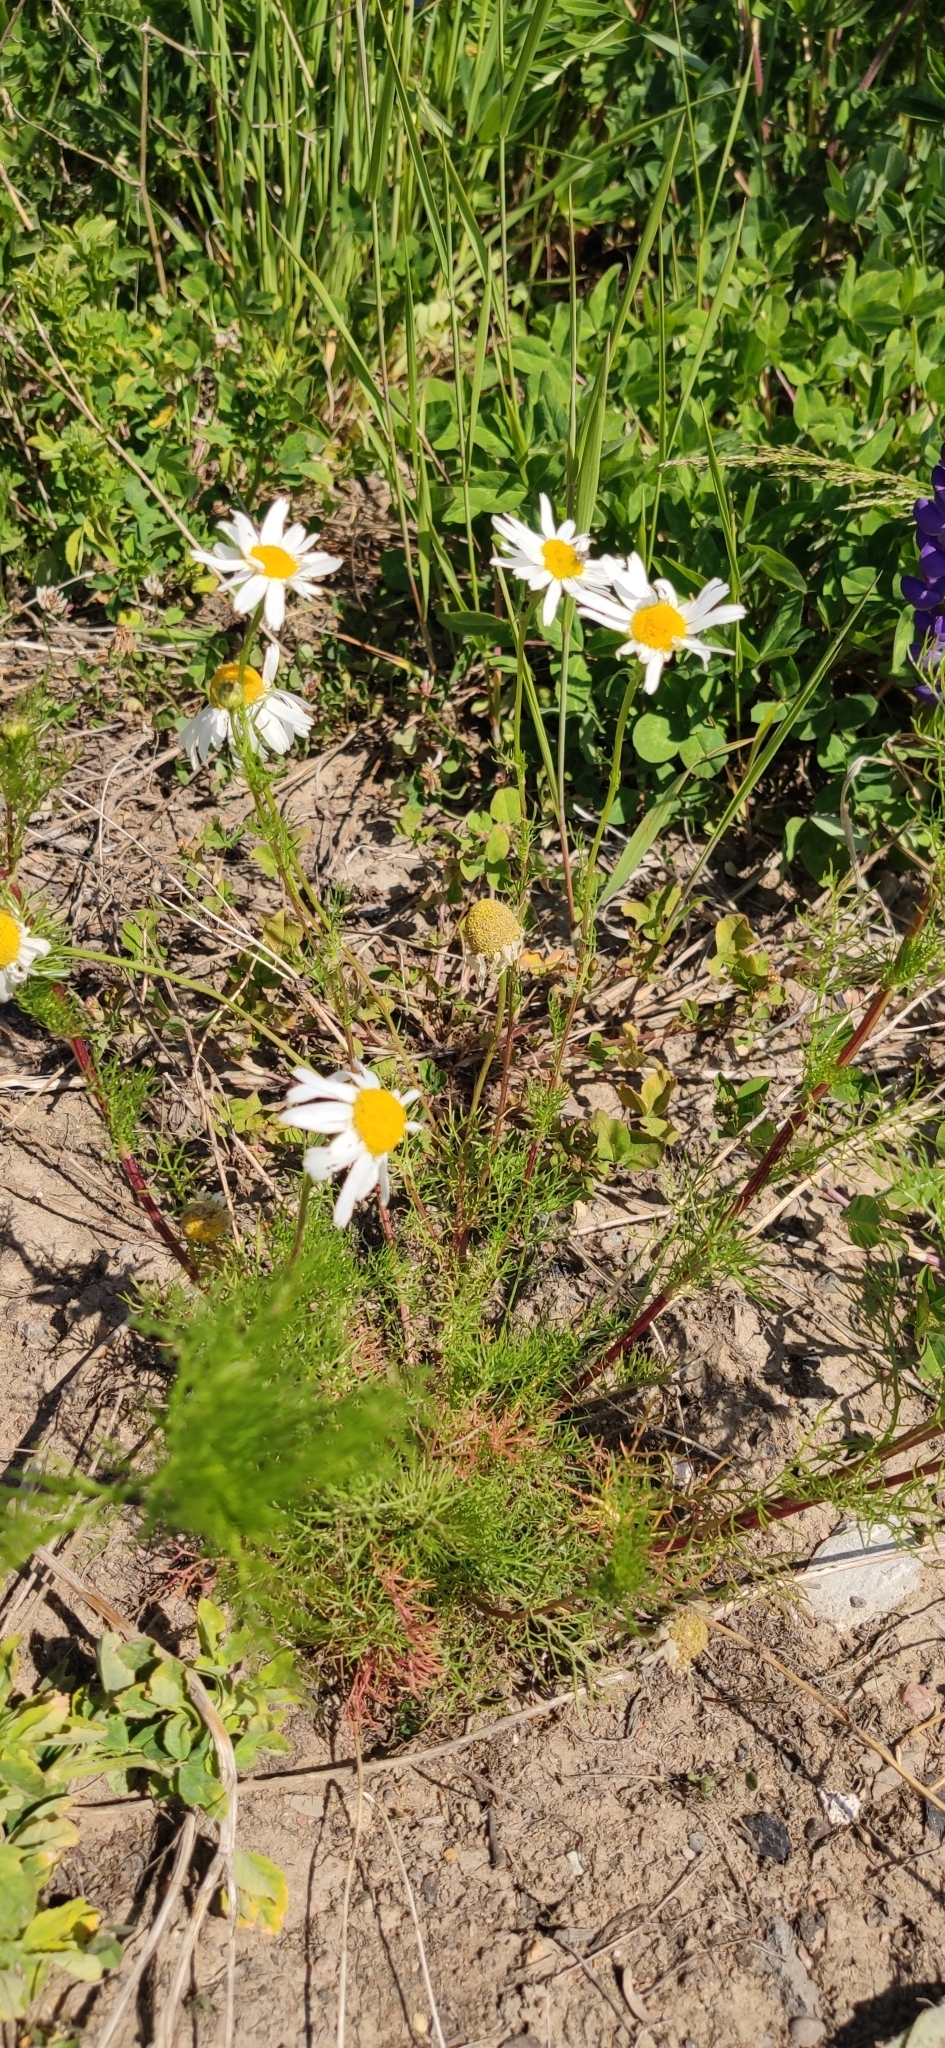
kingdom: Plantae
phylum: Tracheophyta
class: Magnoliopsida
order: Asterales
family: Asteraceae
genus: Tripleurospermum
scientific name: Tripleurospermum inodorum
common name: Scentless mayweed
